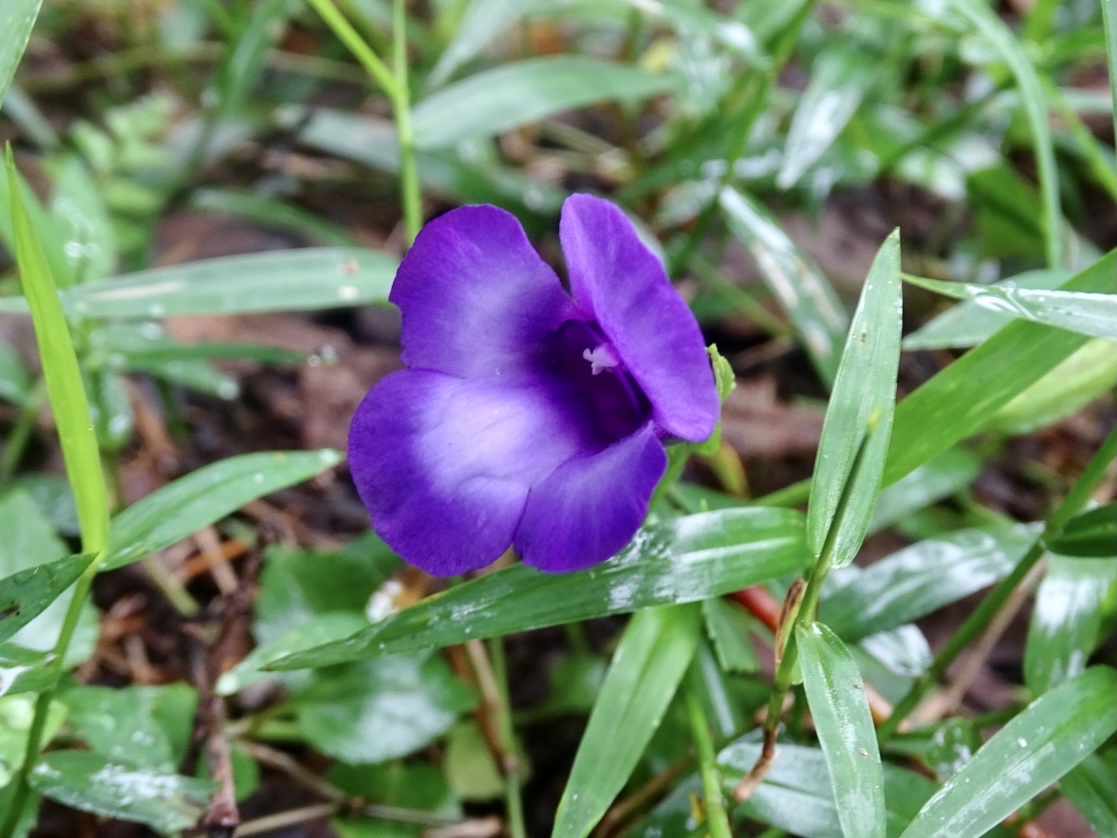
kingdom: Plantae
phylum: Tracheophyta
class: Magnoliopsida
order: Lamiales
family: Linderniaceae
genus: Torenia
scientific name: Torenia concolor
